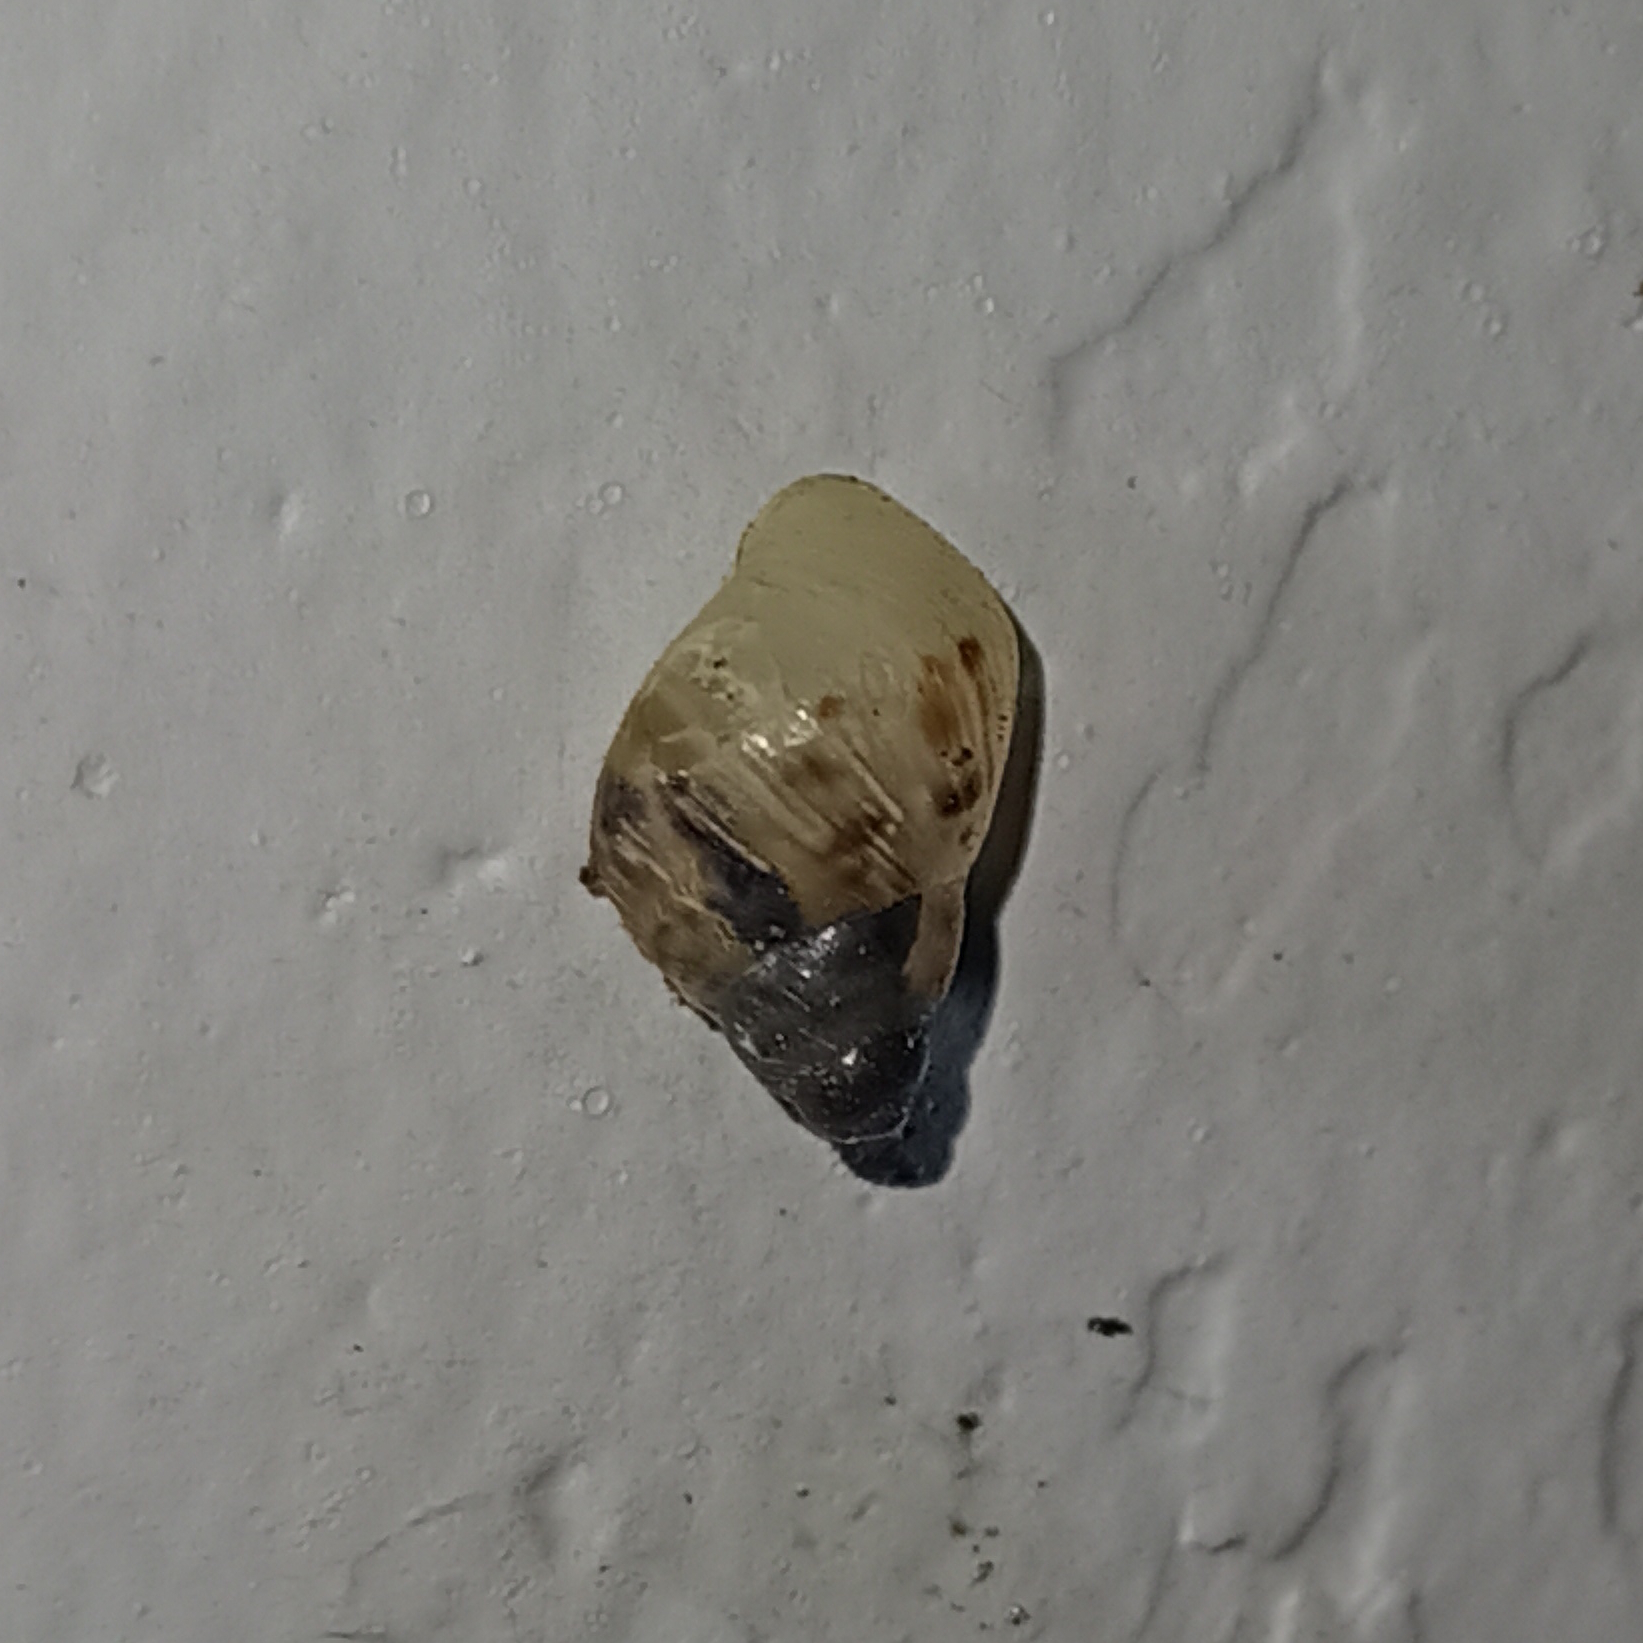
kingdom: Animalia
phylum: Mollusca
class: Gastropoda
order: Stylommatophora
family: Bulimulidae
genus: Drymaeus
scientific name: Drymaeus papyraceus
